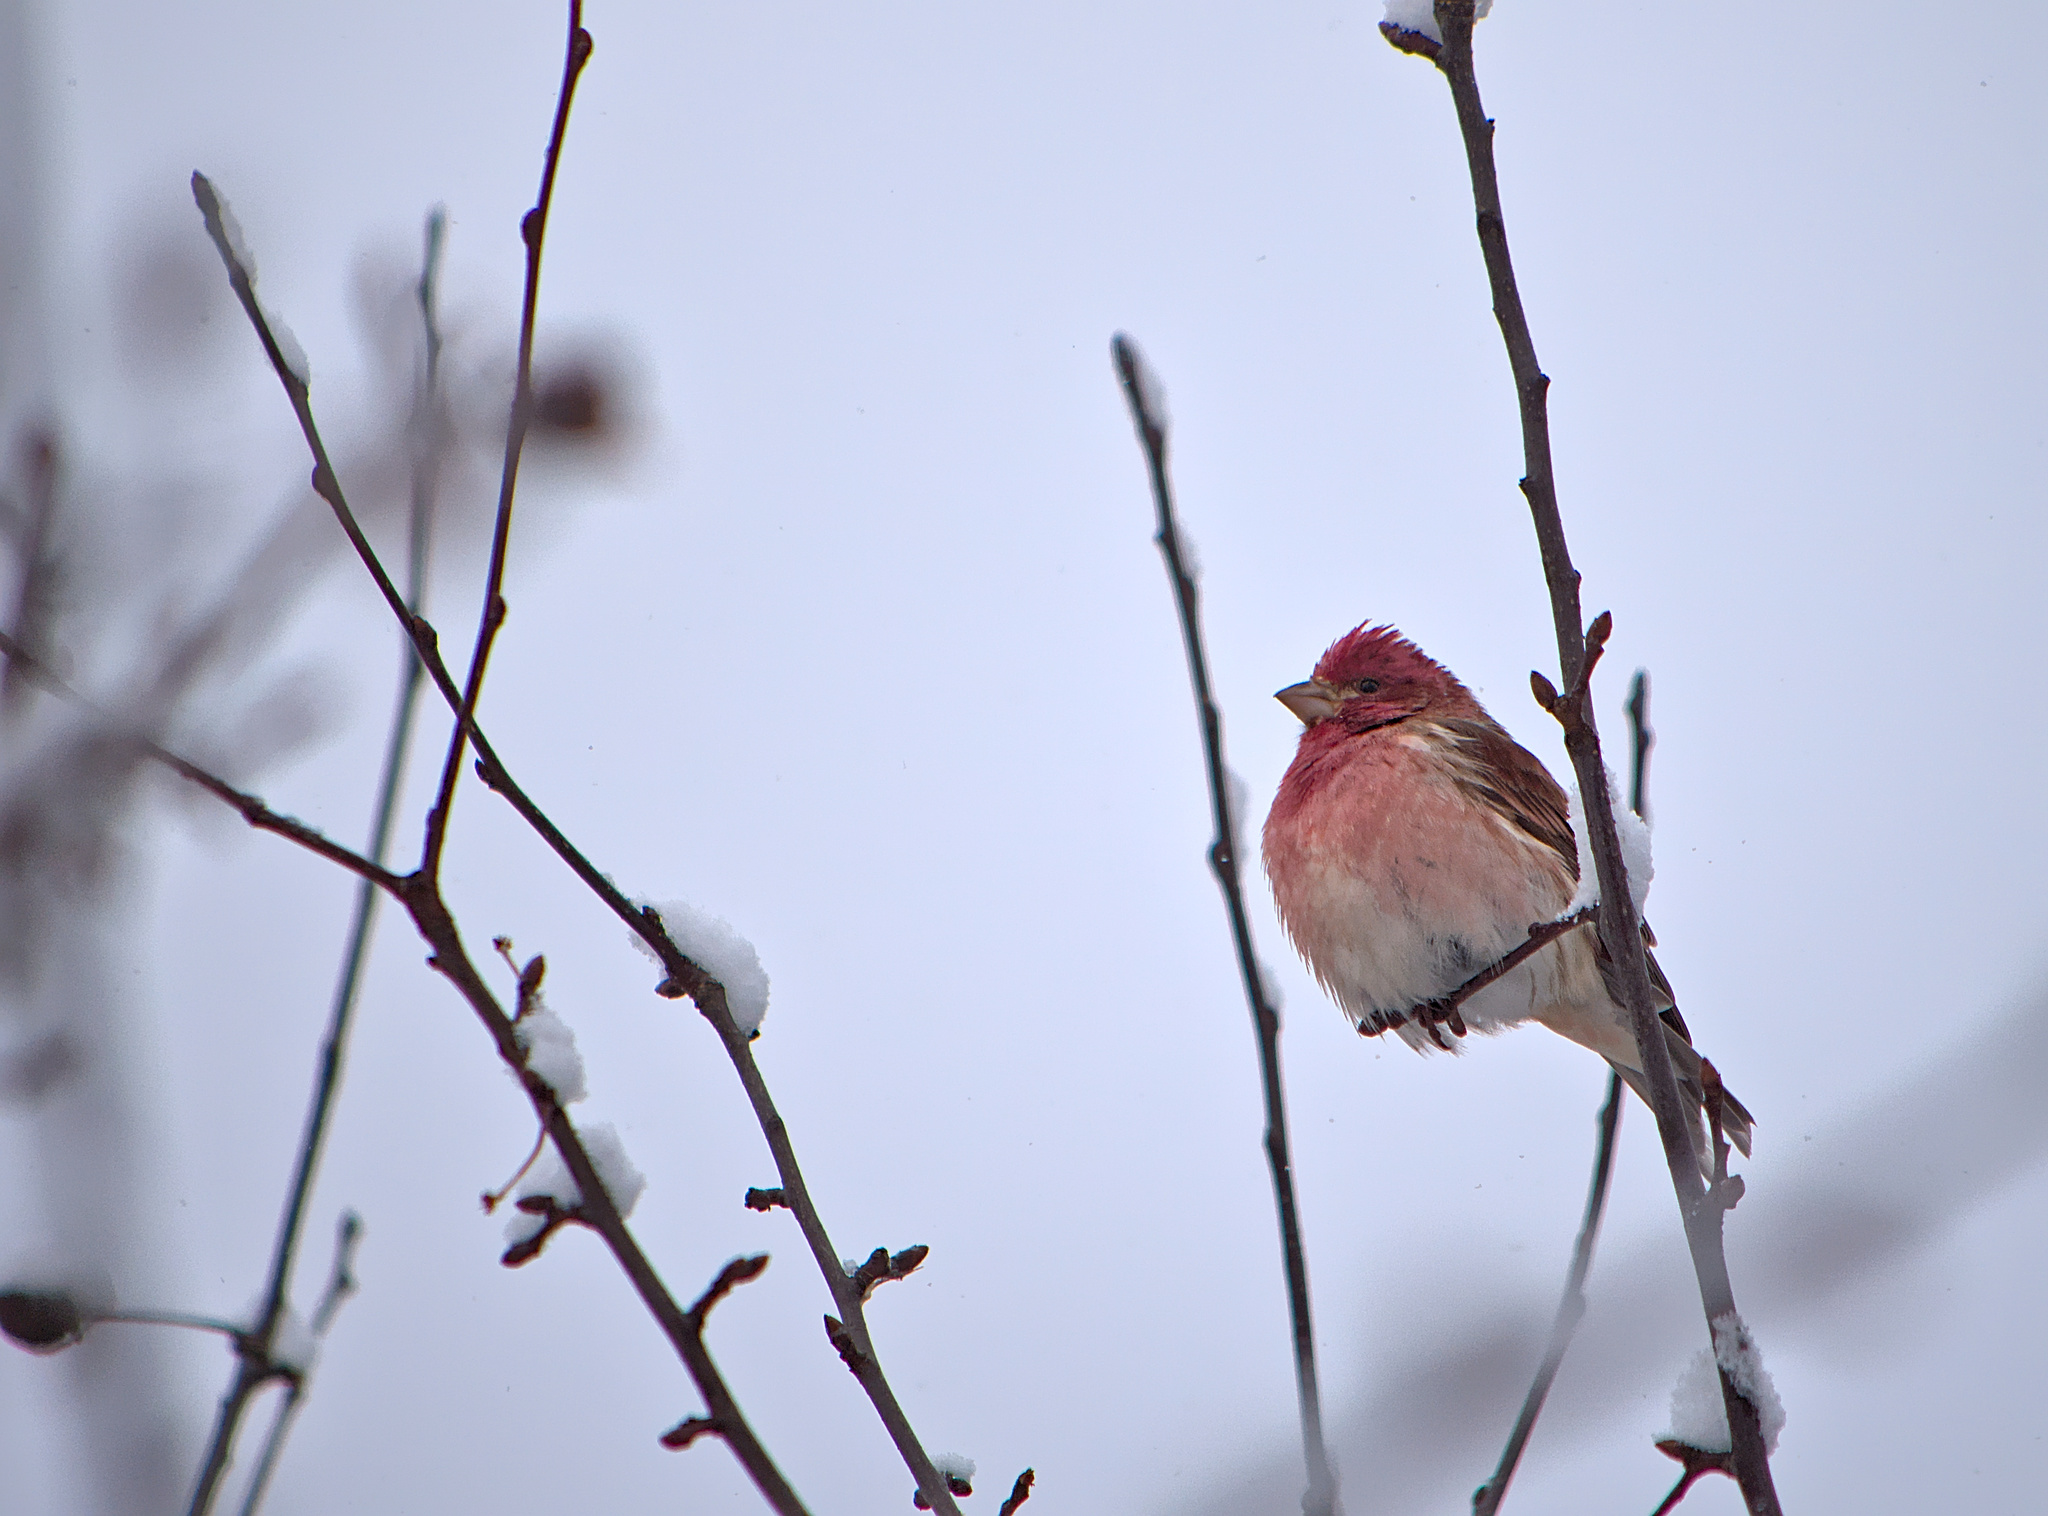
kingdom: Animalia
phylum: Chordata
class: Aves
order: Passeriformes
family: Fringillidae
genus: Haemorhous
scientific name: Haemorhous purpureus
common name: Purple finch
